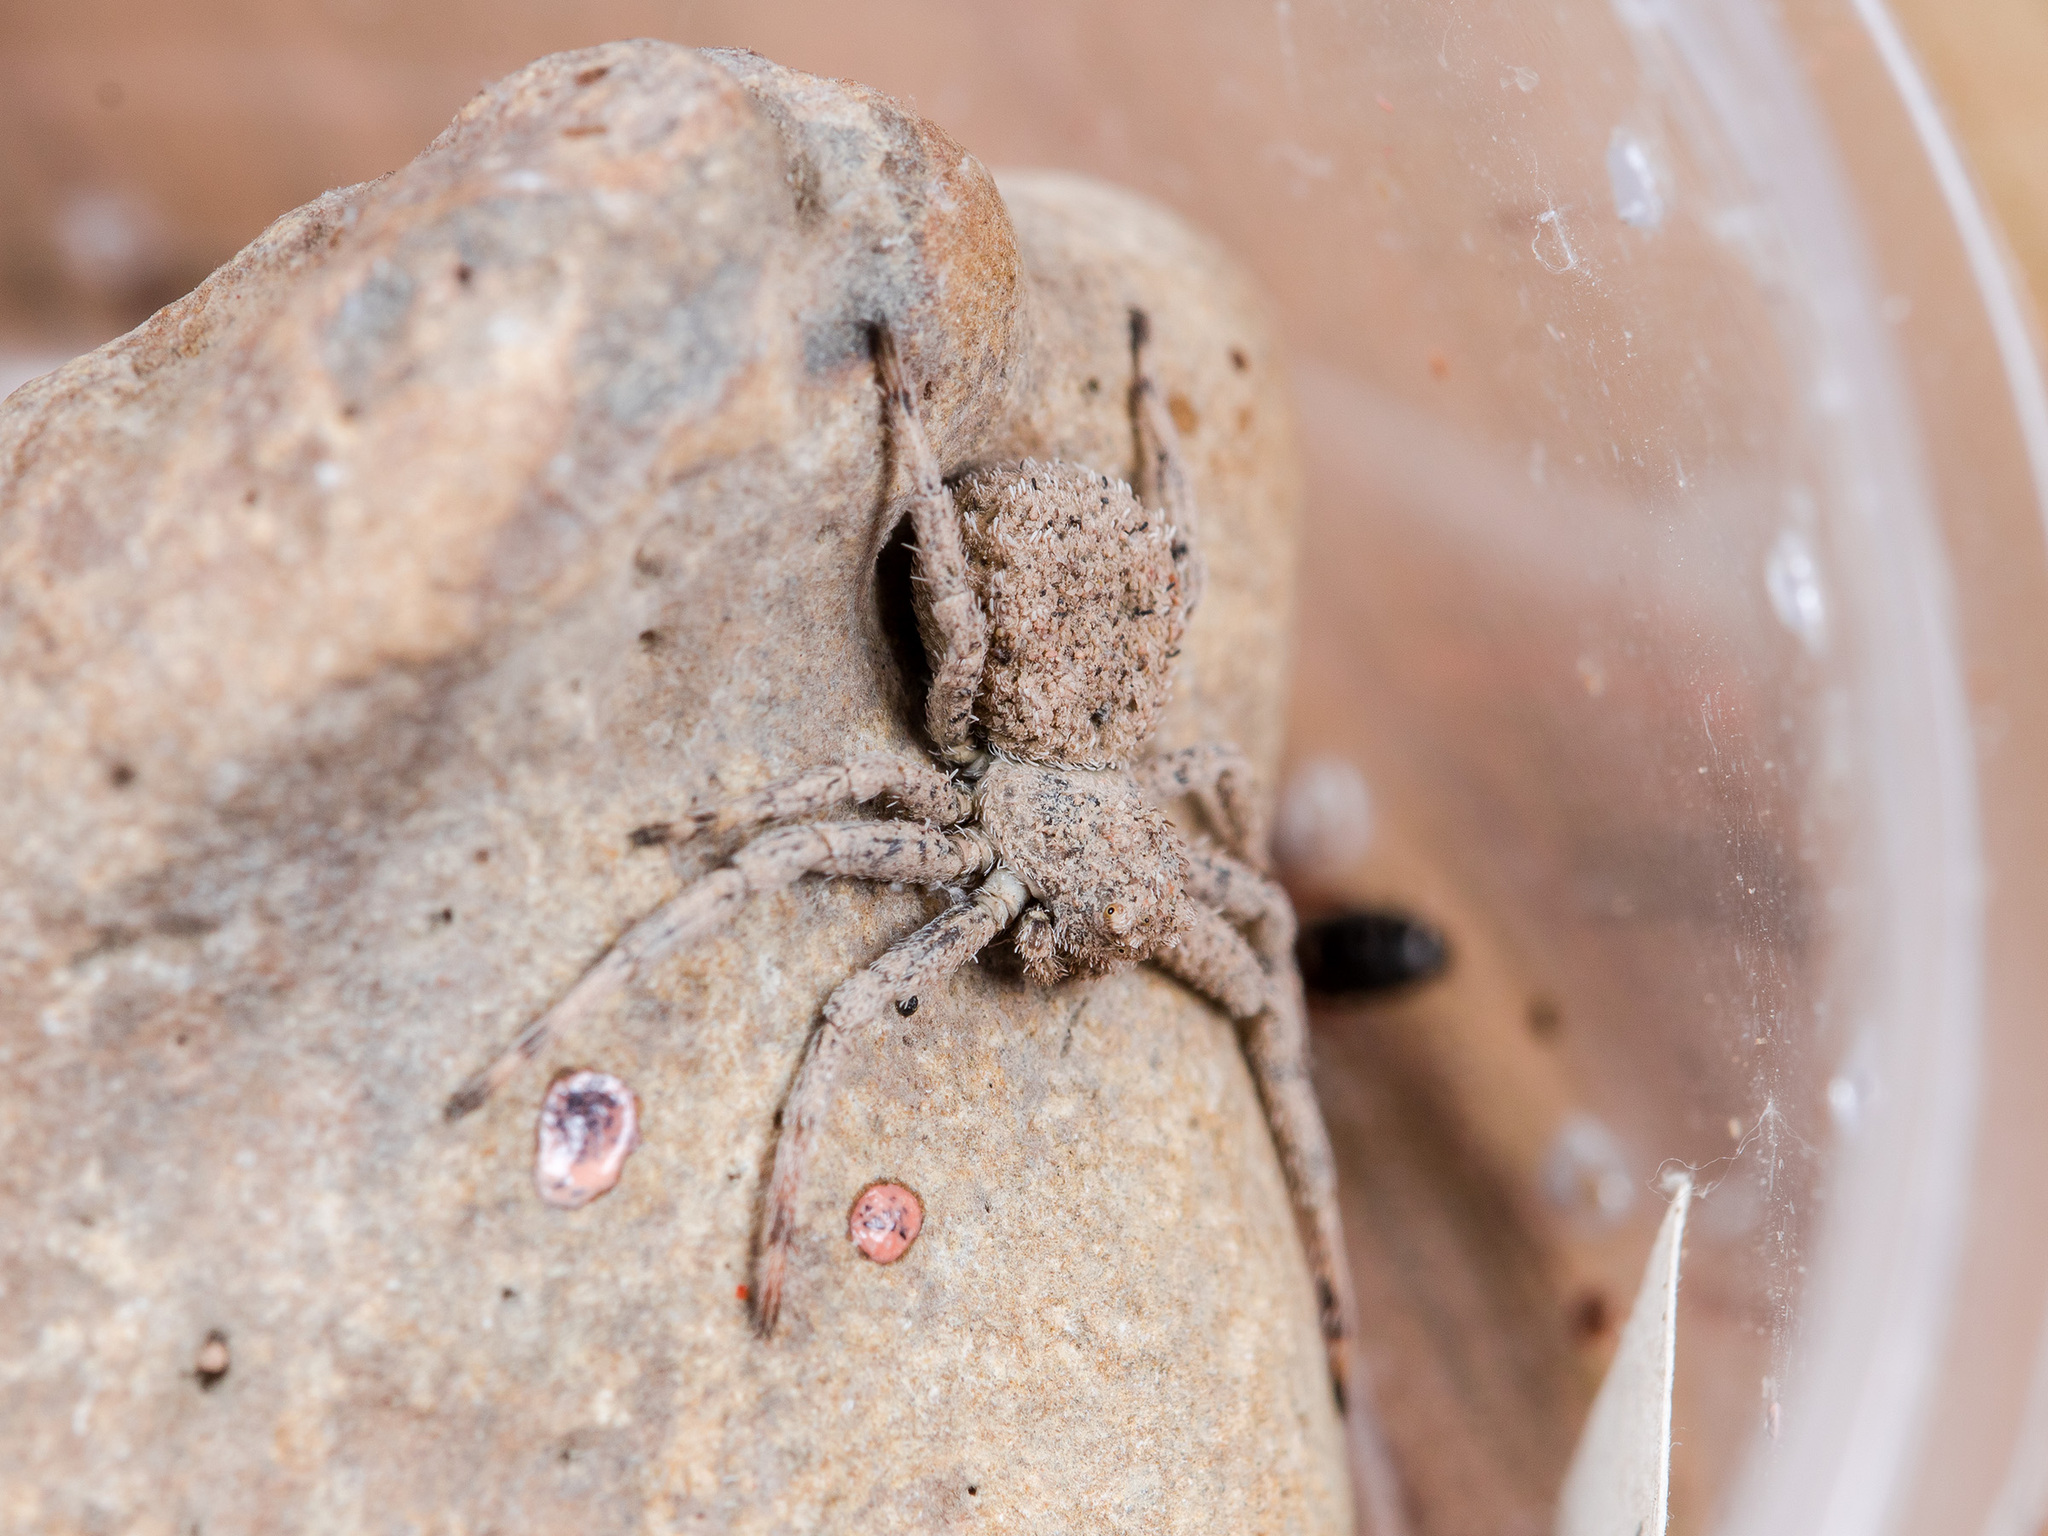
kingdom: Animalia
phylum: Arthropoda
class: Arachnida
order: Araneae
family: Thomisidae
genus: Ozyptila
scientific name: Ozyptila tuberosa
